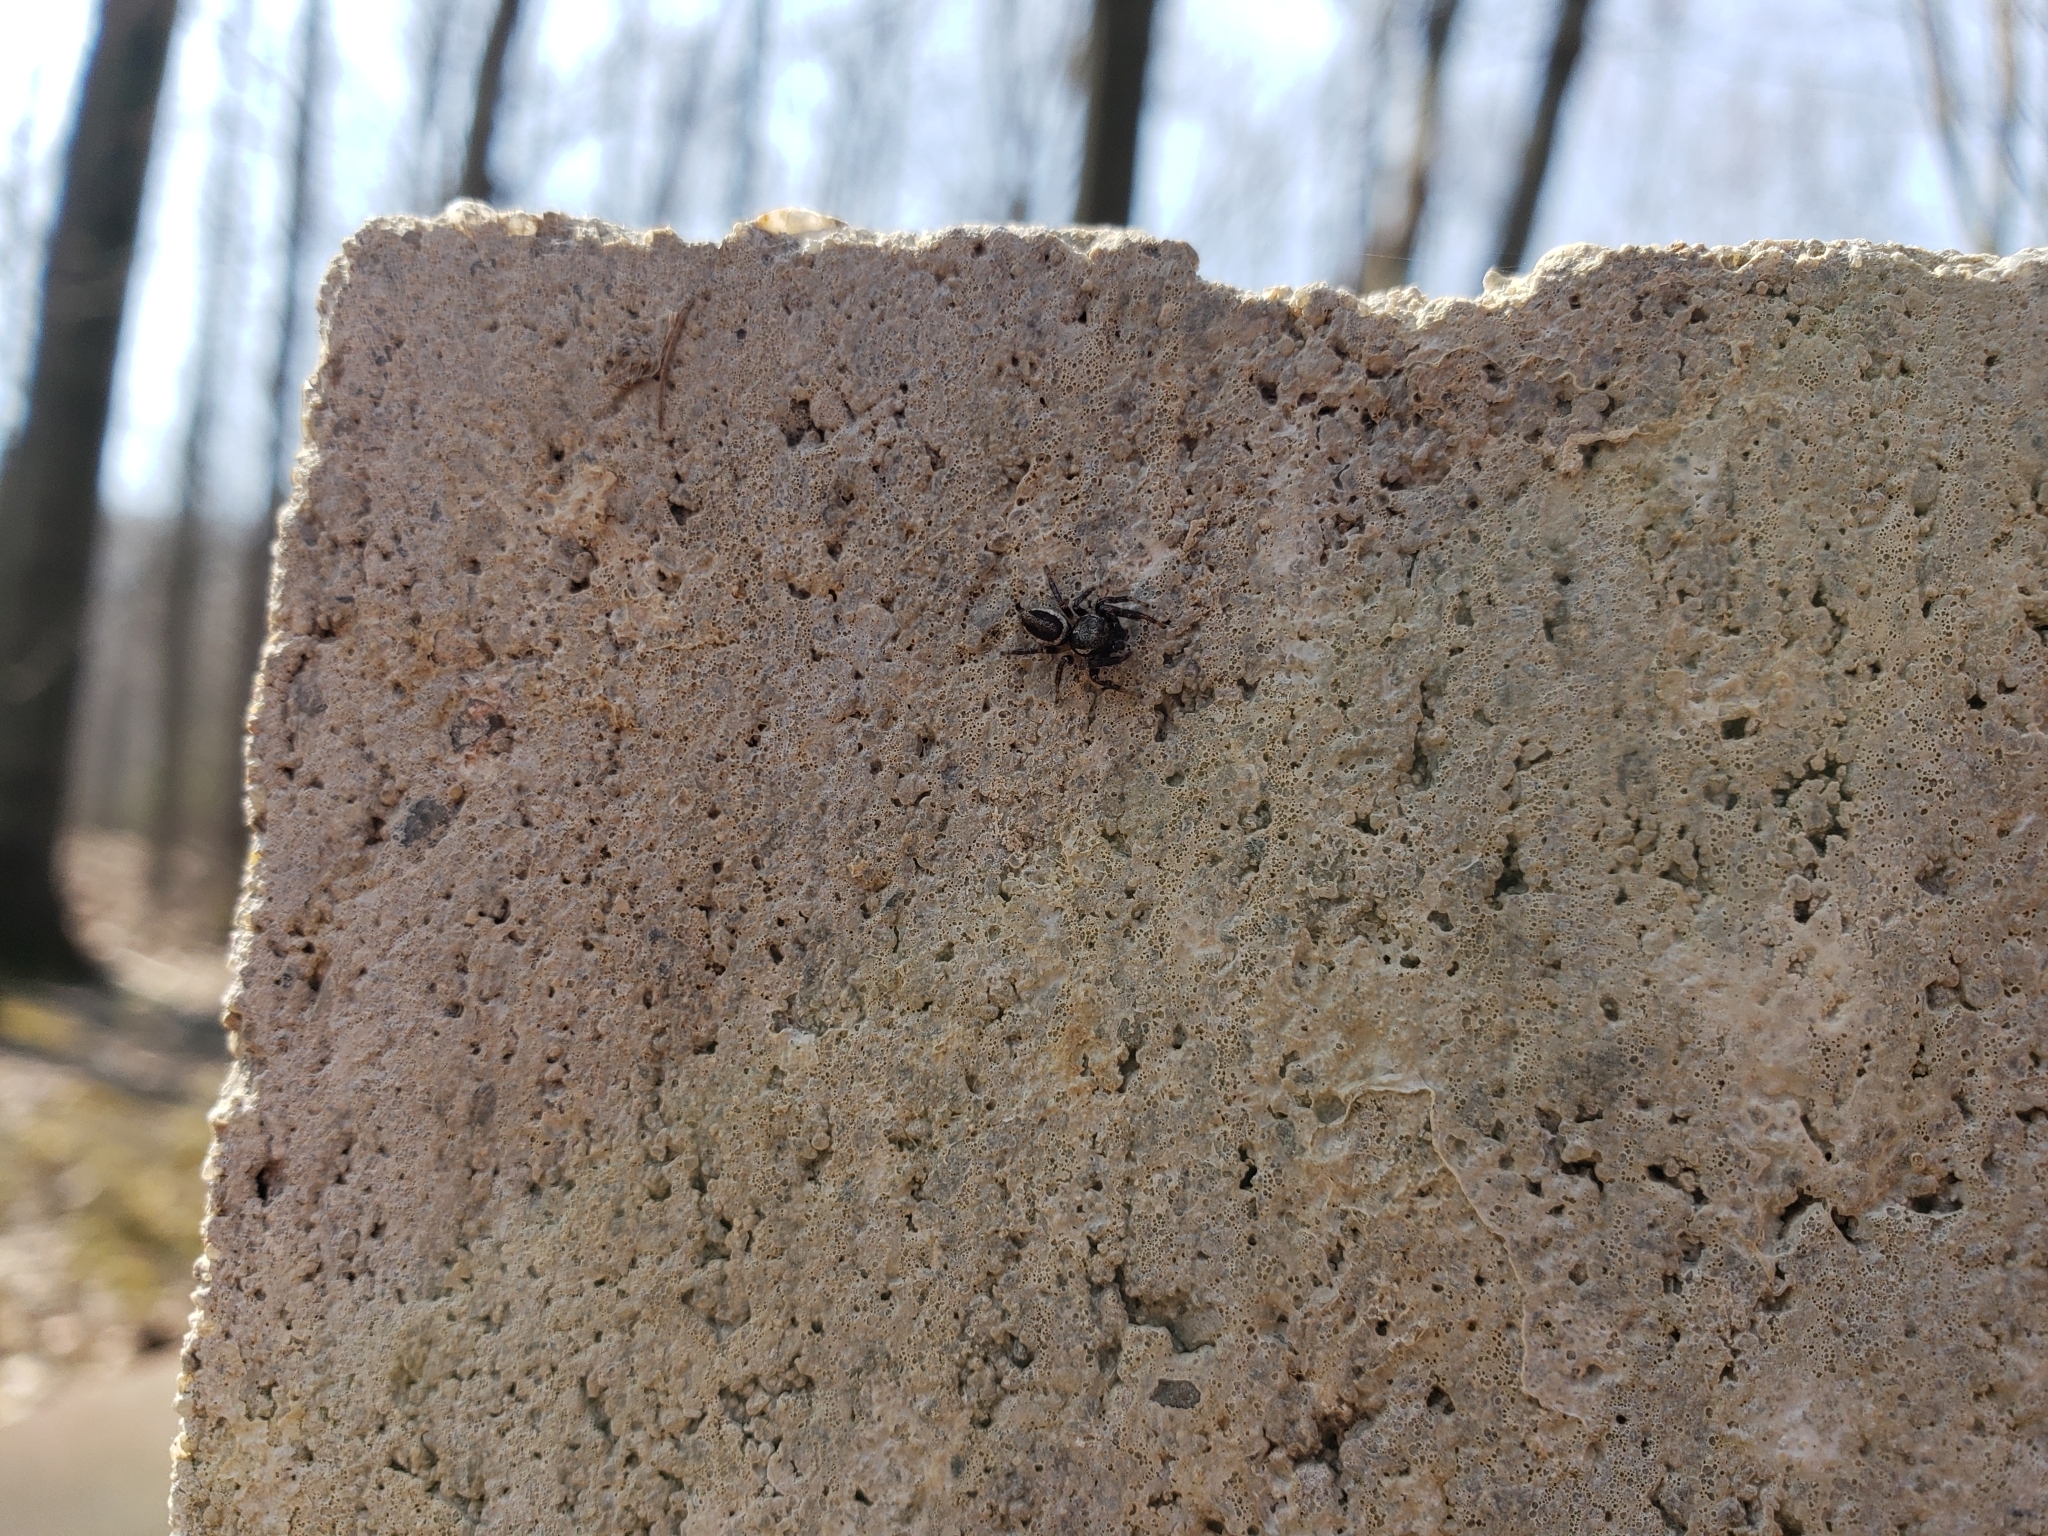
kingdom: Animalia
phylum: Arthropoda
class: Arachnida
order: Araneae
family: Salticidae
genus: Eris
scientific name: Eris militaris
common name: Bronze jumper
